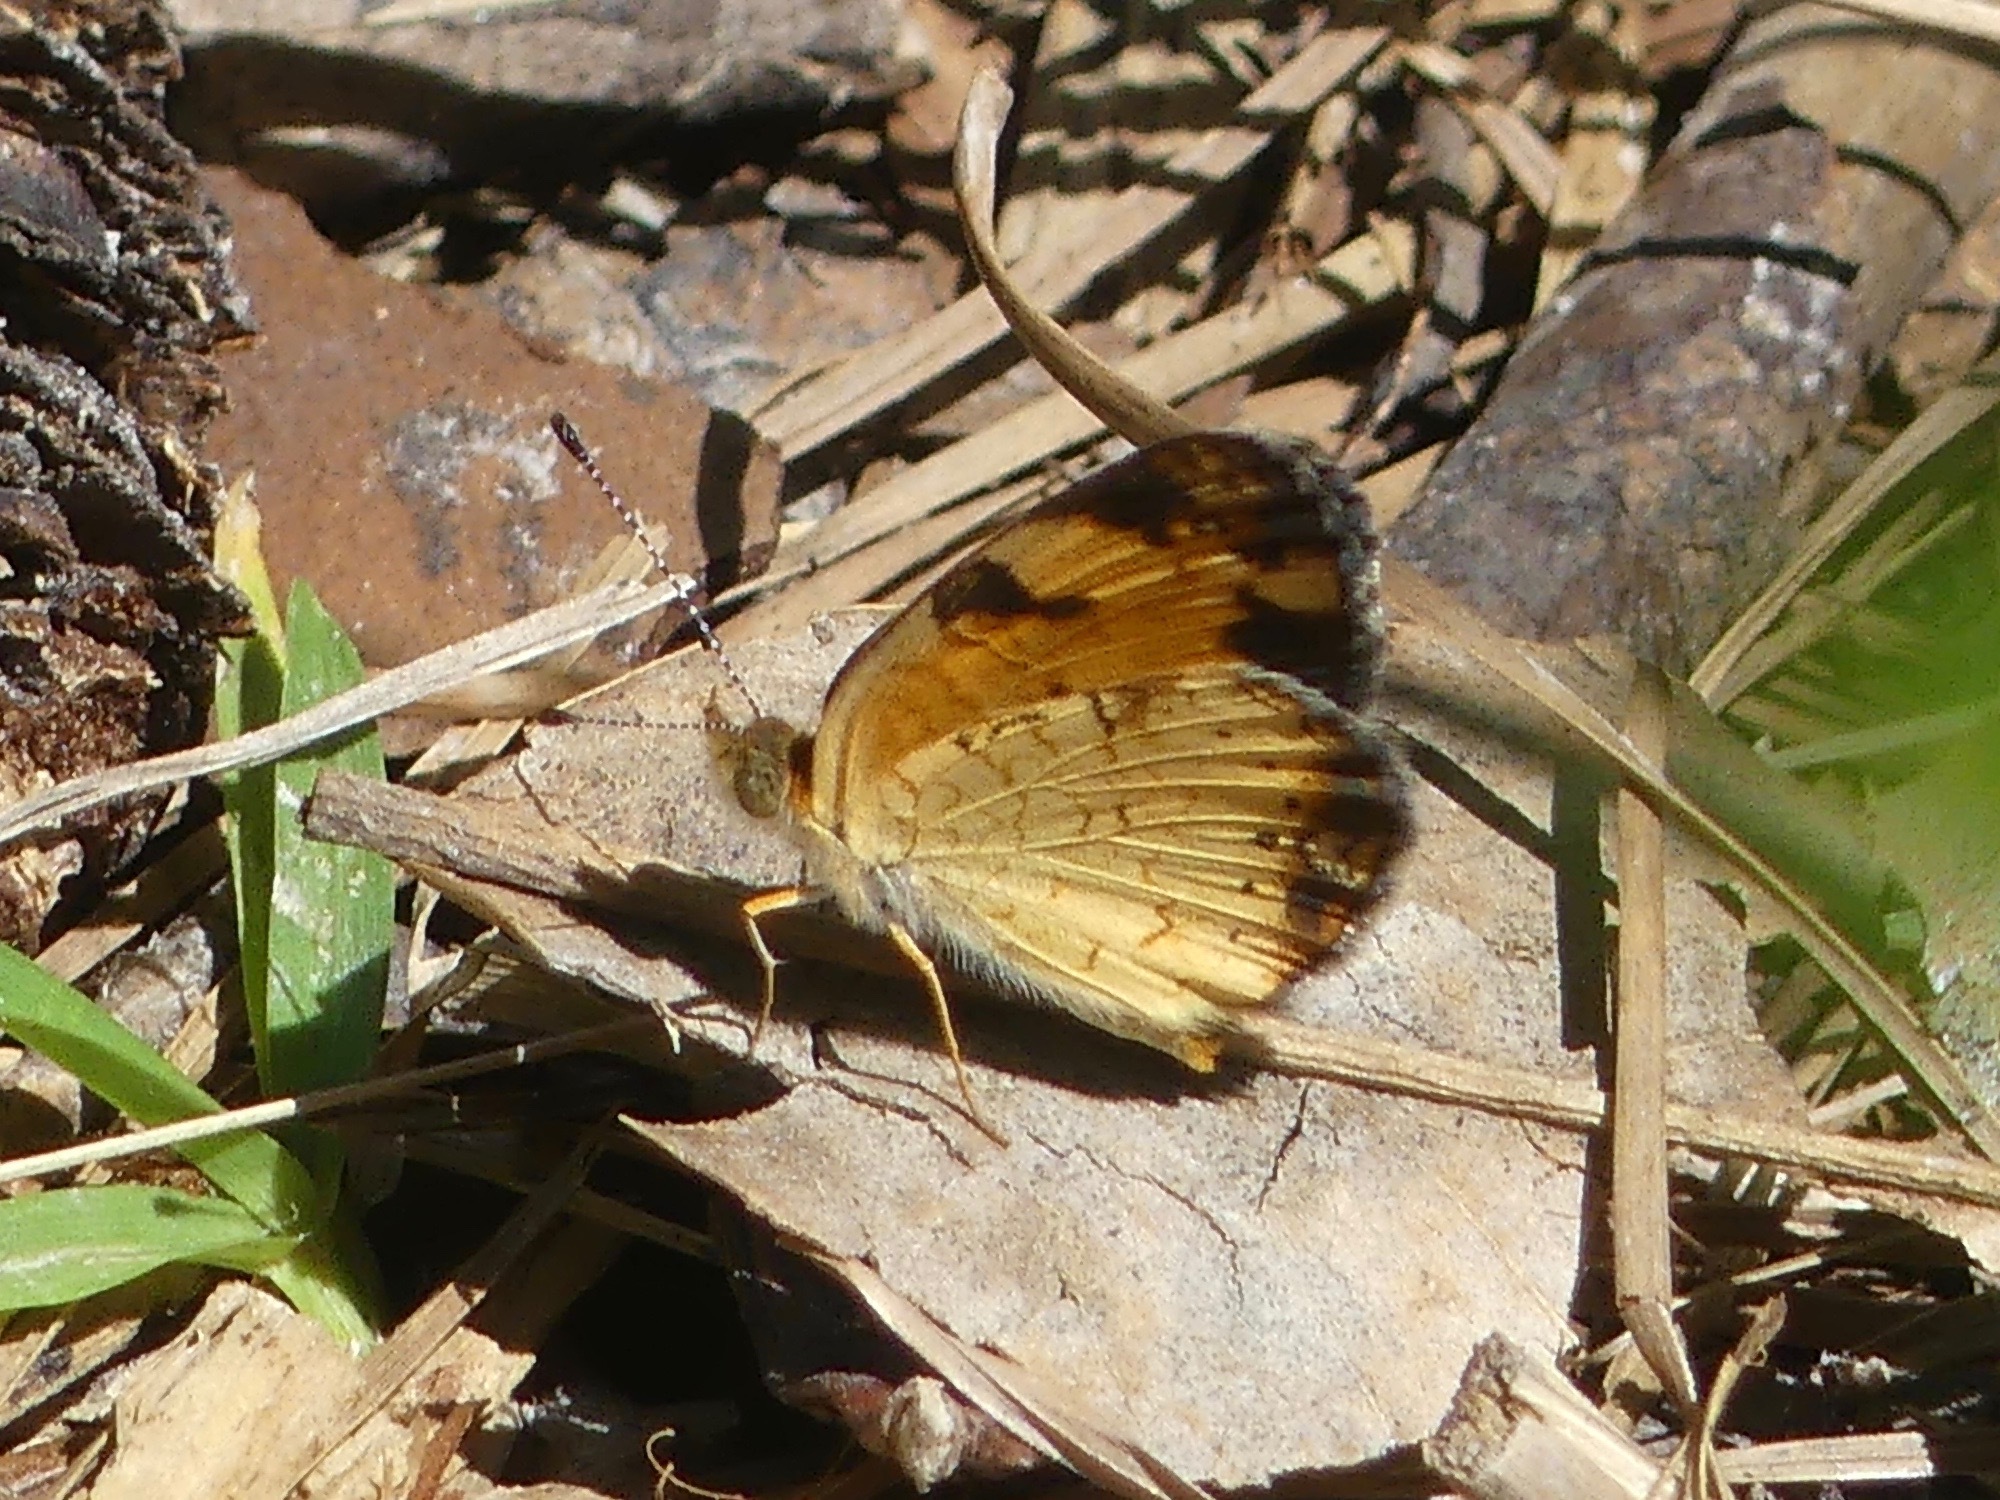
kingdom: Animalia
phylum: Arthropoda
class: Insecta
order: Lepidoptera
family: Nymphalidae
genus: Phyciodes
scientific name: Phyciodes tharos
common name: Pearl crescent
